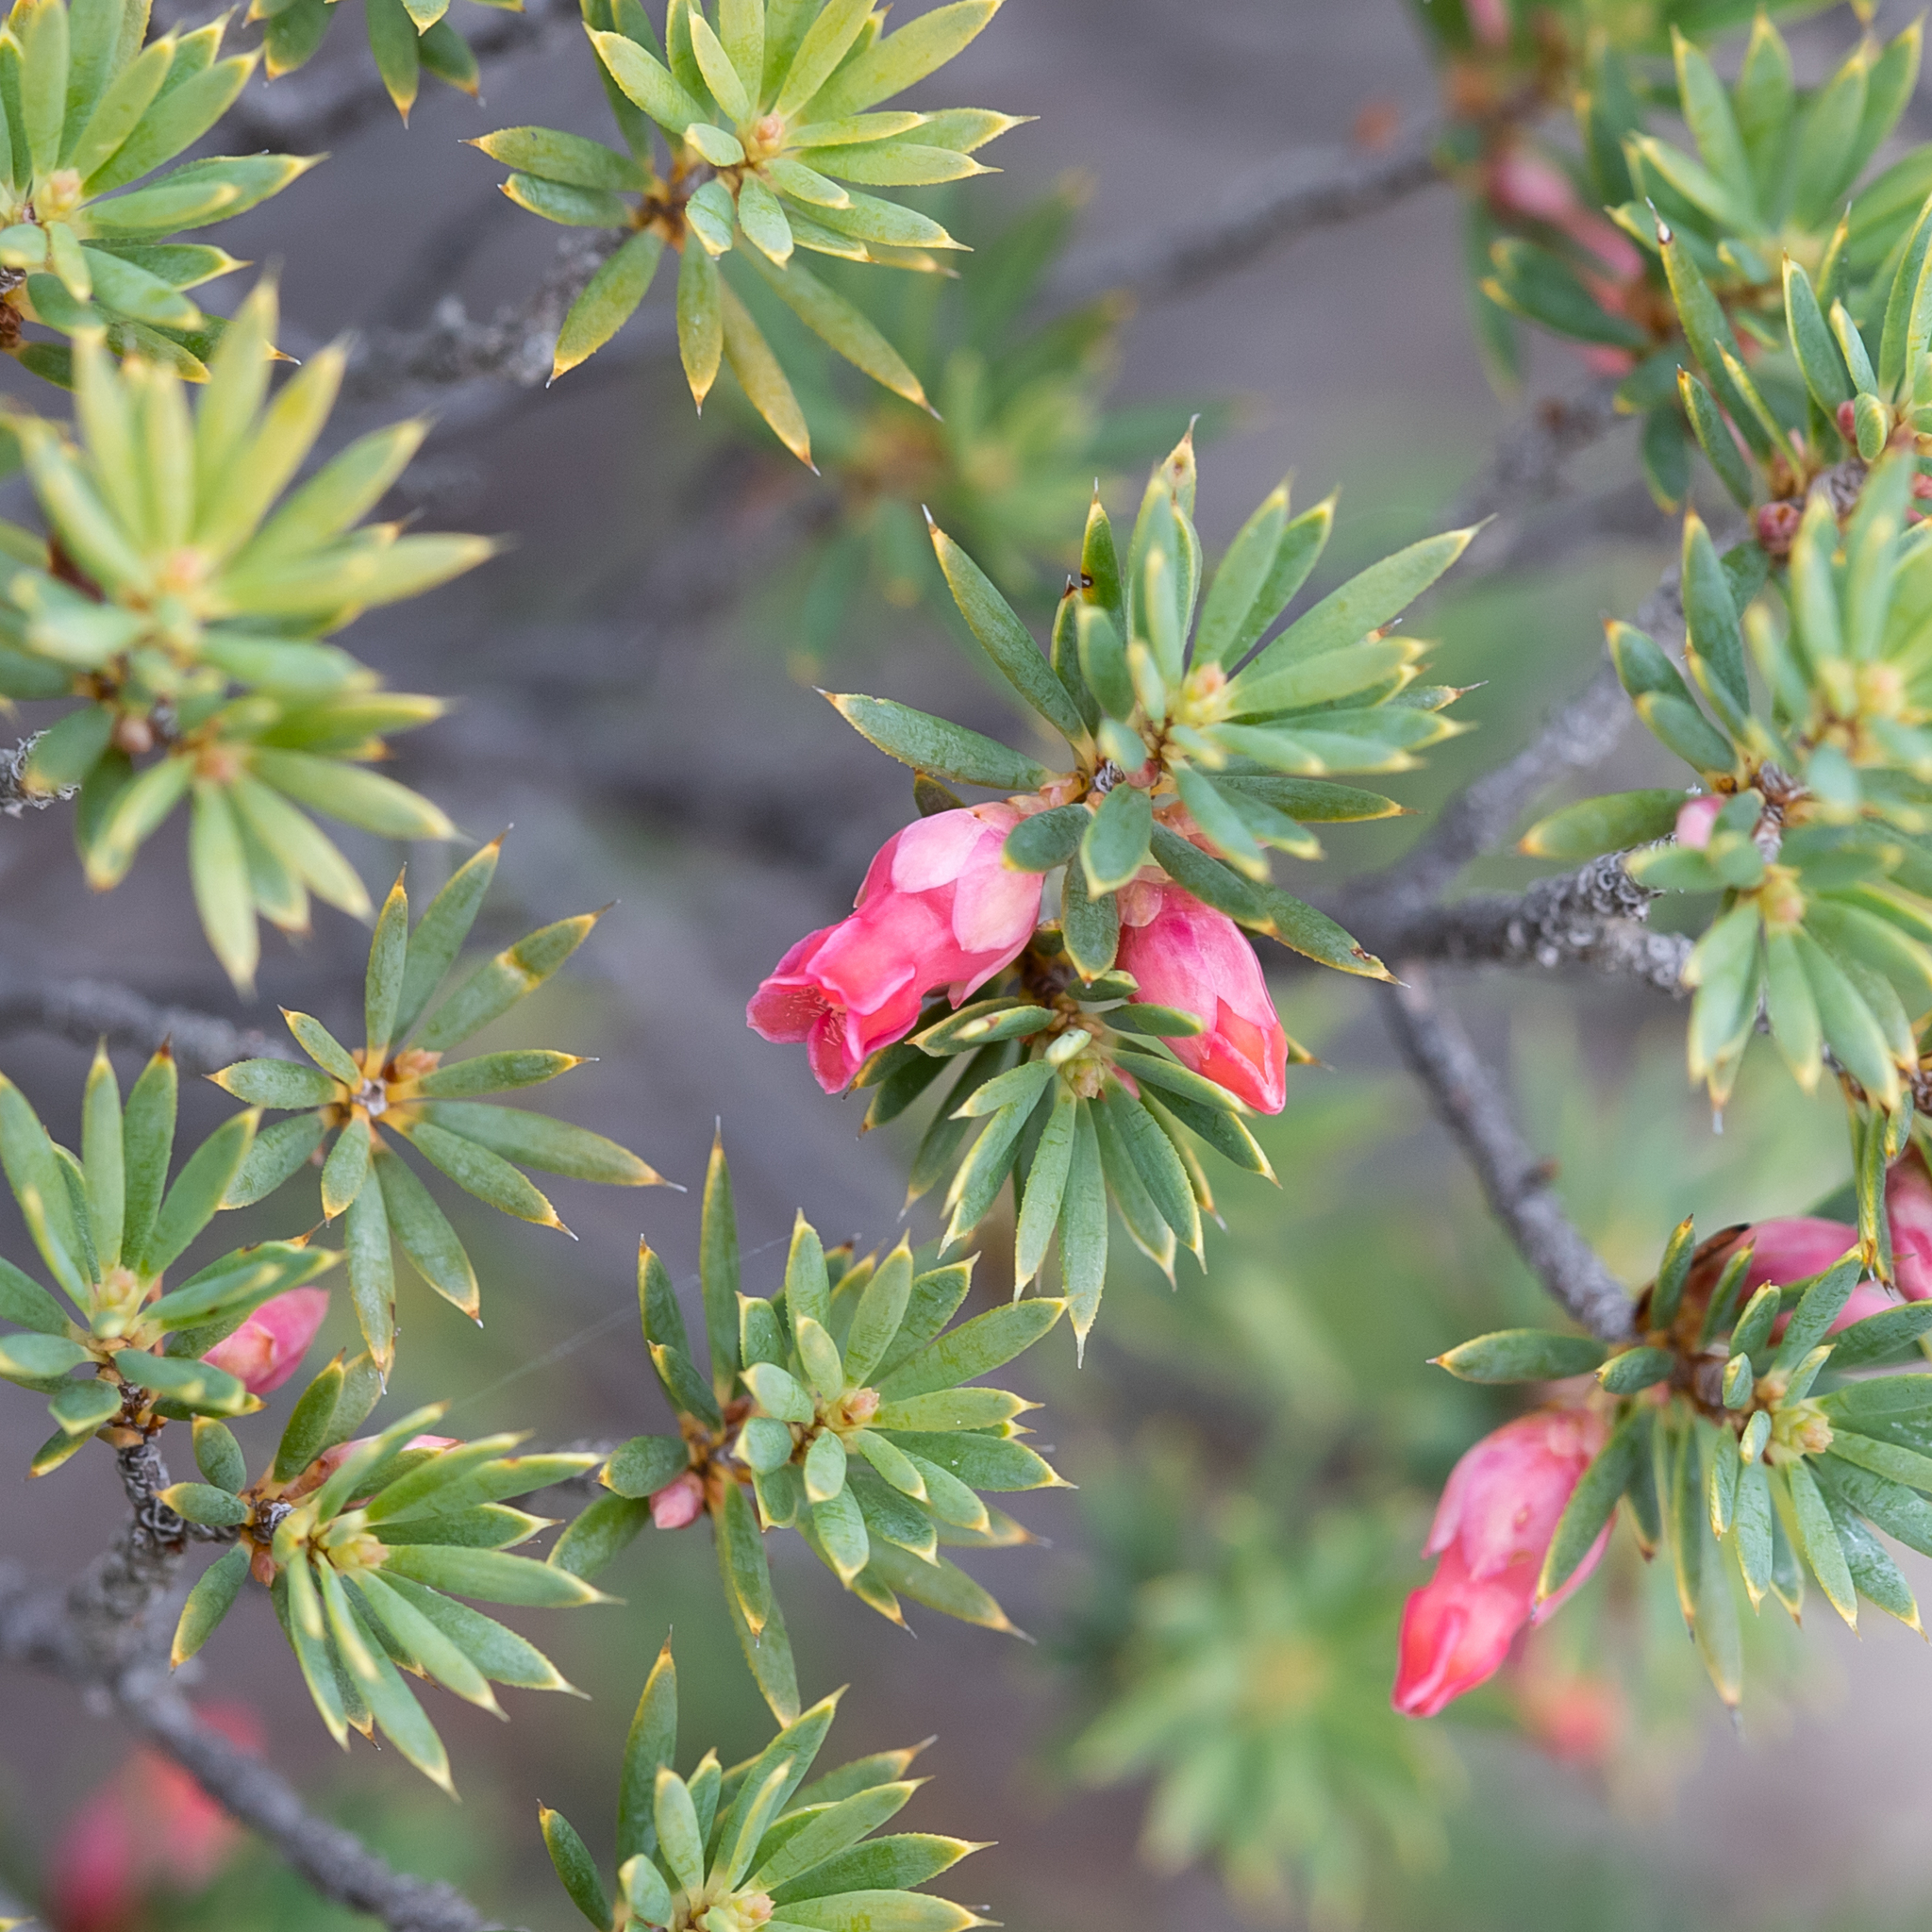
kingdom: Plantae
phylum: Tracheophyta
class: Magnoliopsida
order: Ericales
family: Ericaceae
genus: Brachyloma
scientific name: Brachyloma ericoides
